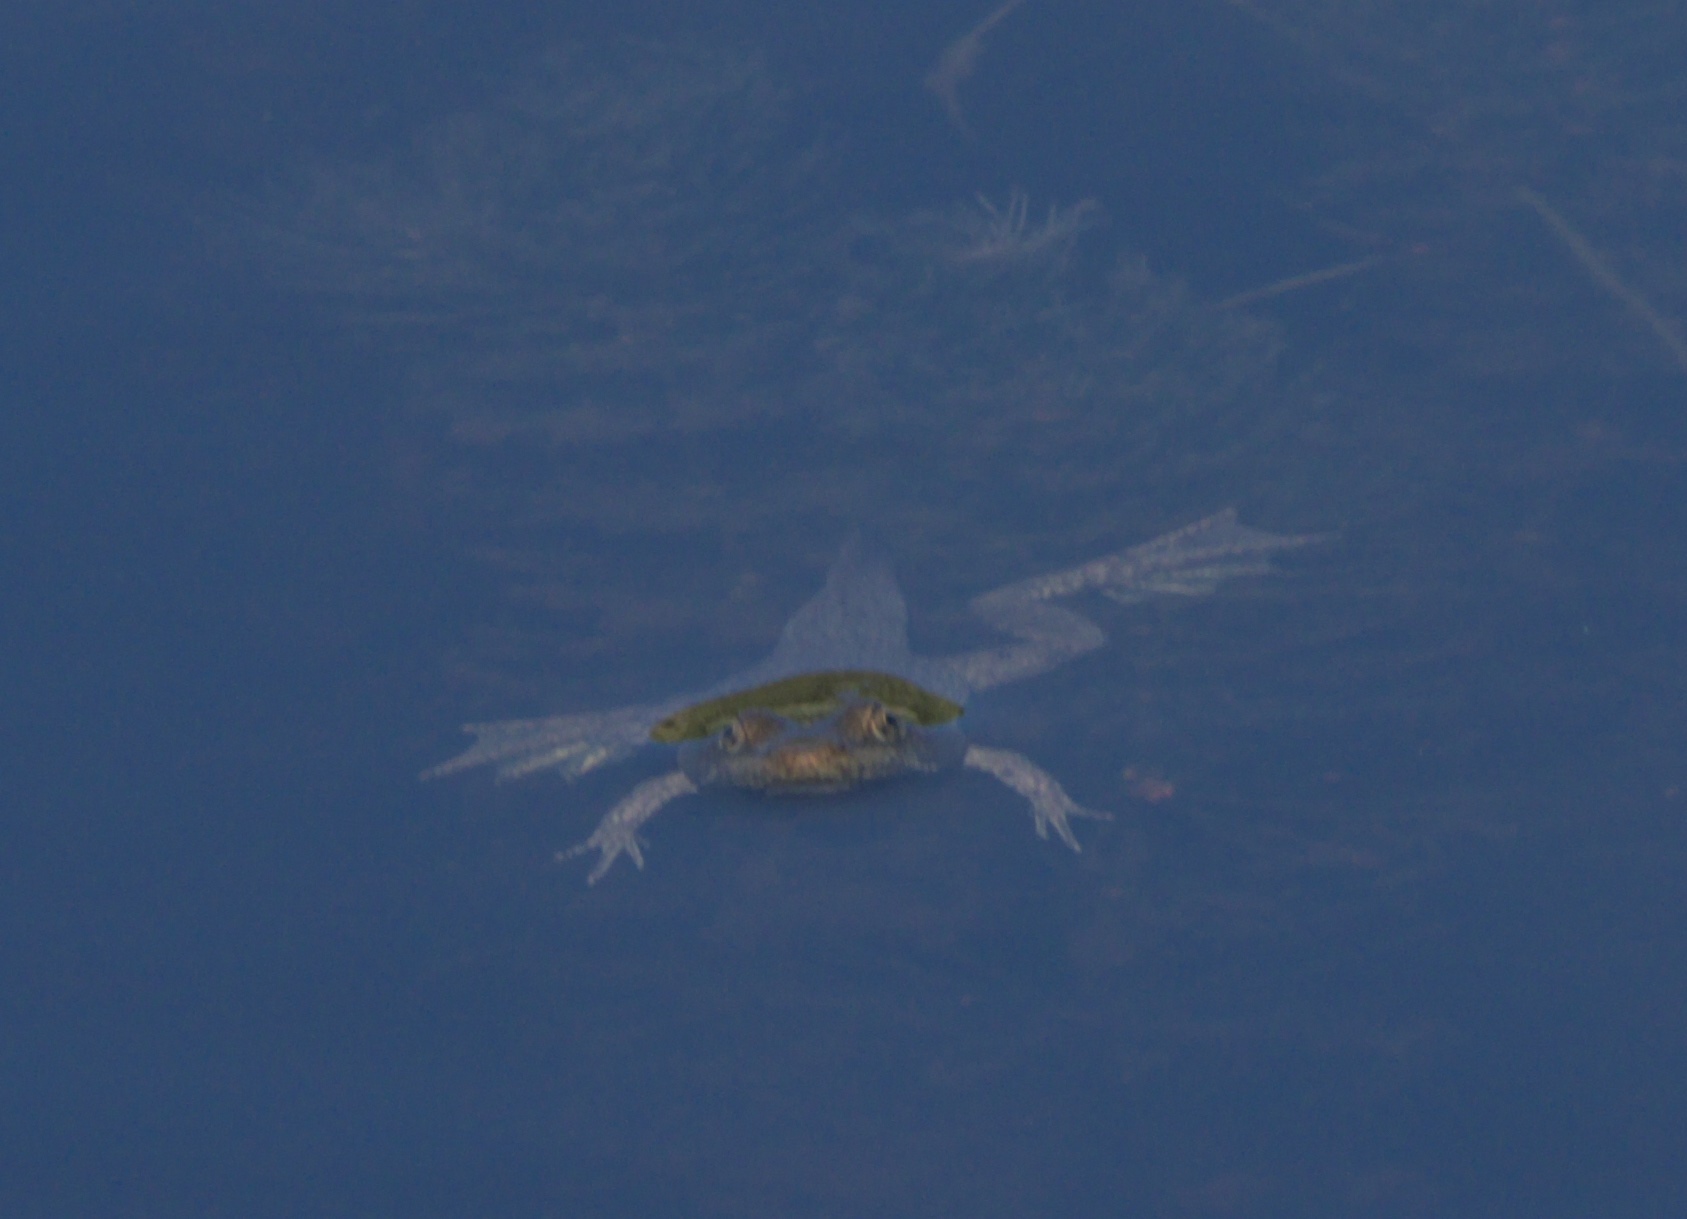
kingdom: Animalia
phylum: Chordata
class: Amphibia
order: Anura
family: Ranidae
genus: Lithobates
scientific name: Lithobates catesbeianus
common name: American bullfrog
